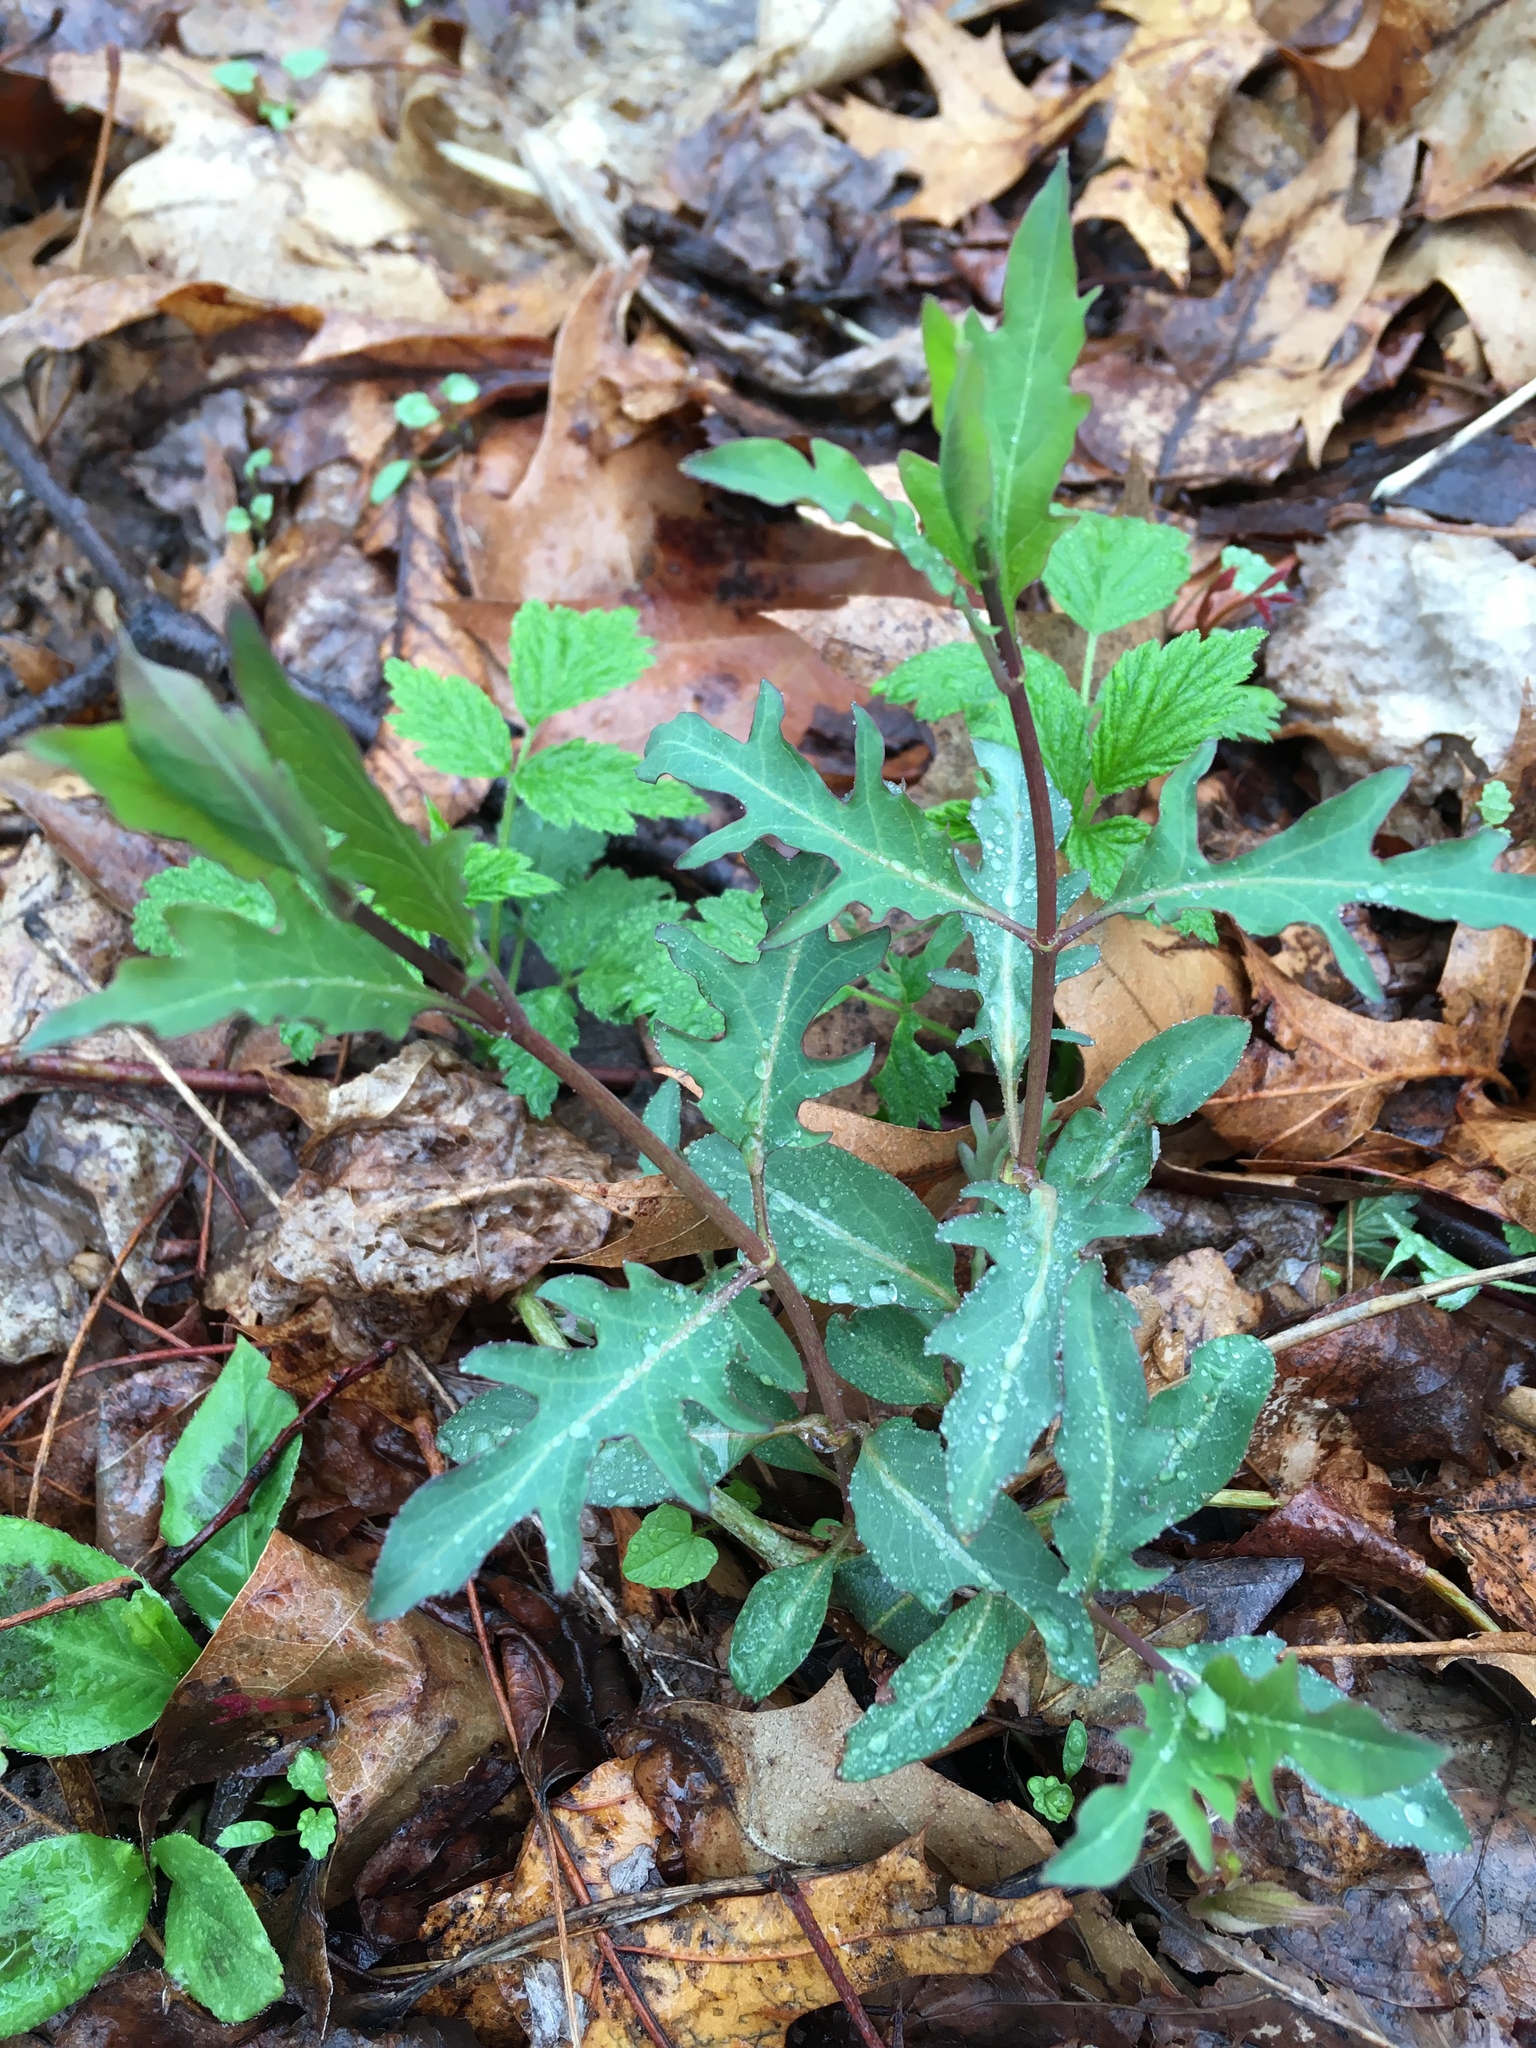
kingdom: Plantae
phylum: Tracheophyta
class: Magnoliopsida
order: Dipsacales
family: Caprifoliaceae
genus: Lonicera
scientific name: Lonicera japonica
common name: Japanese honeysuckle
